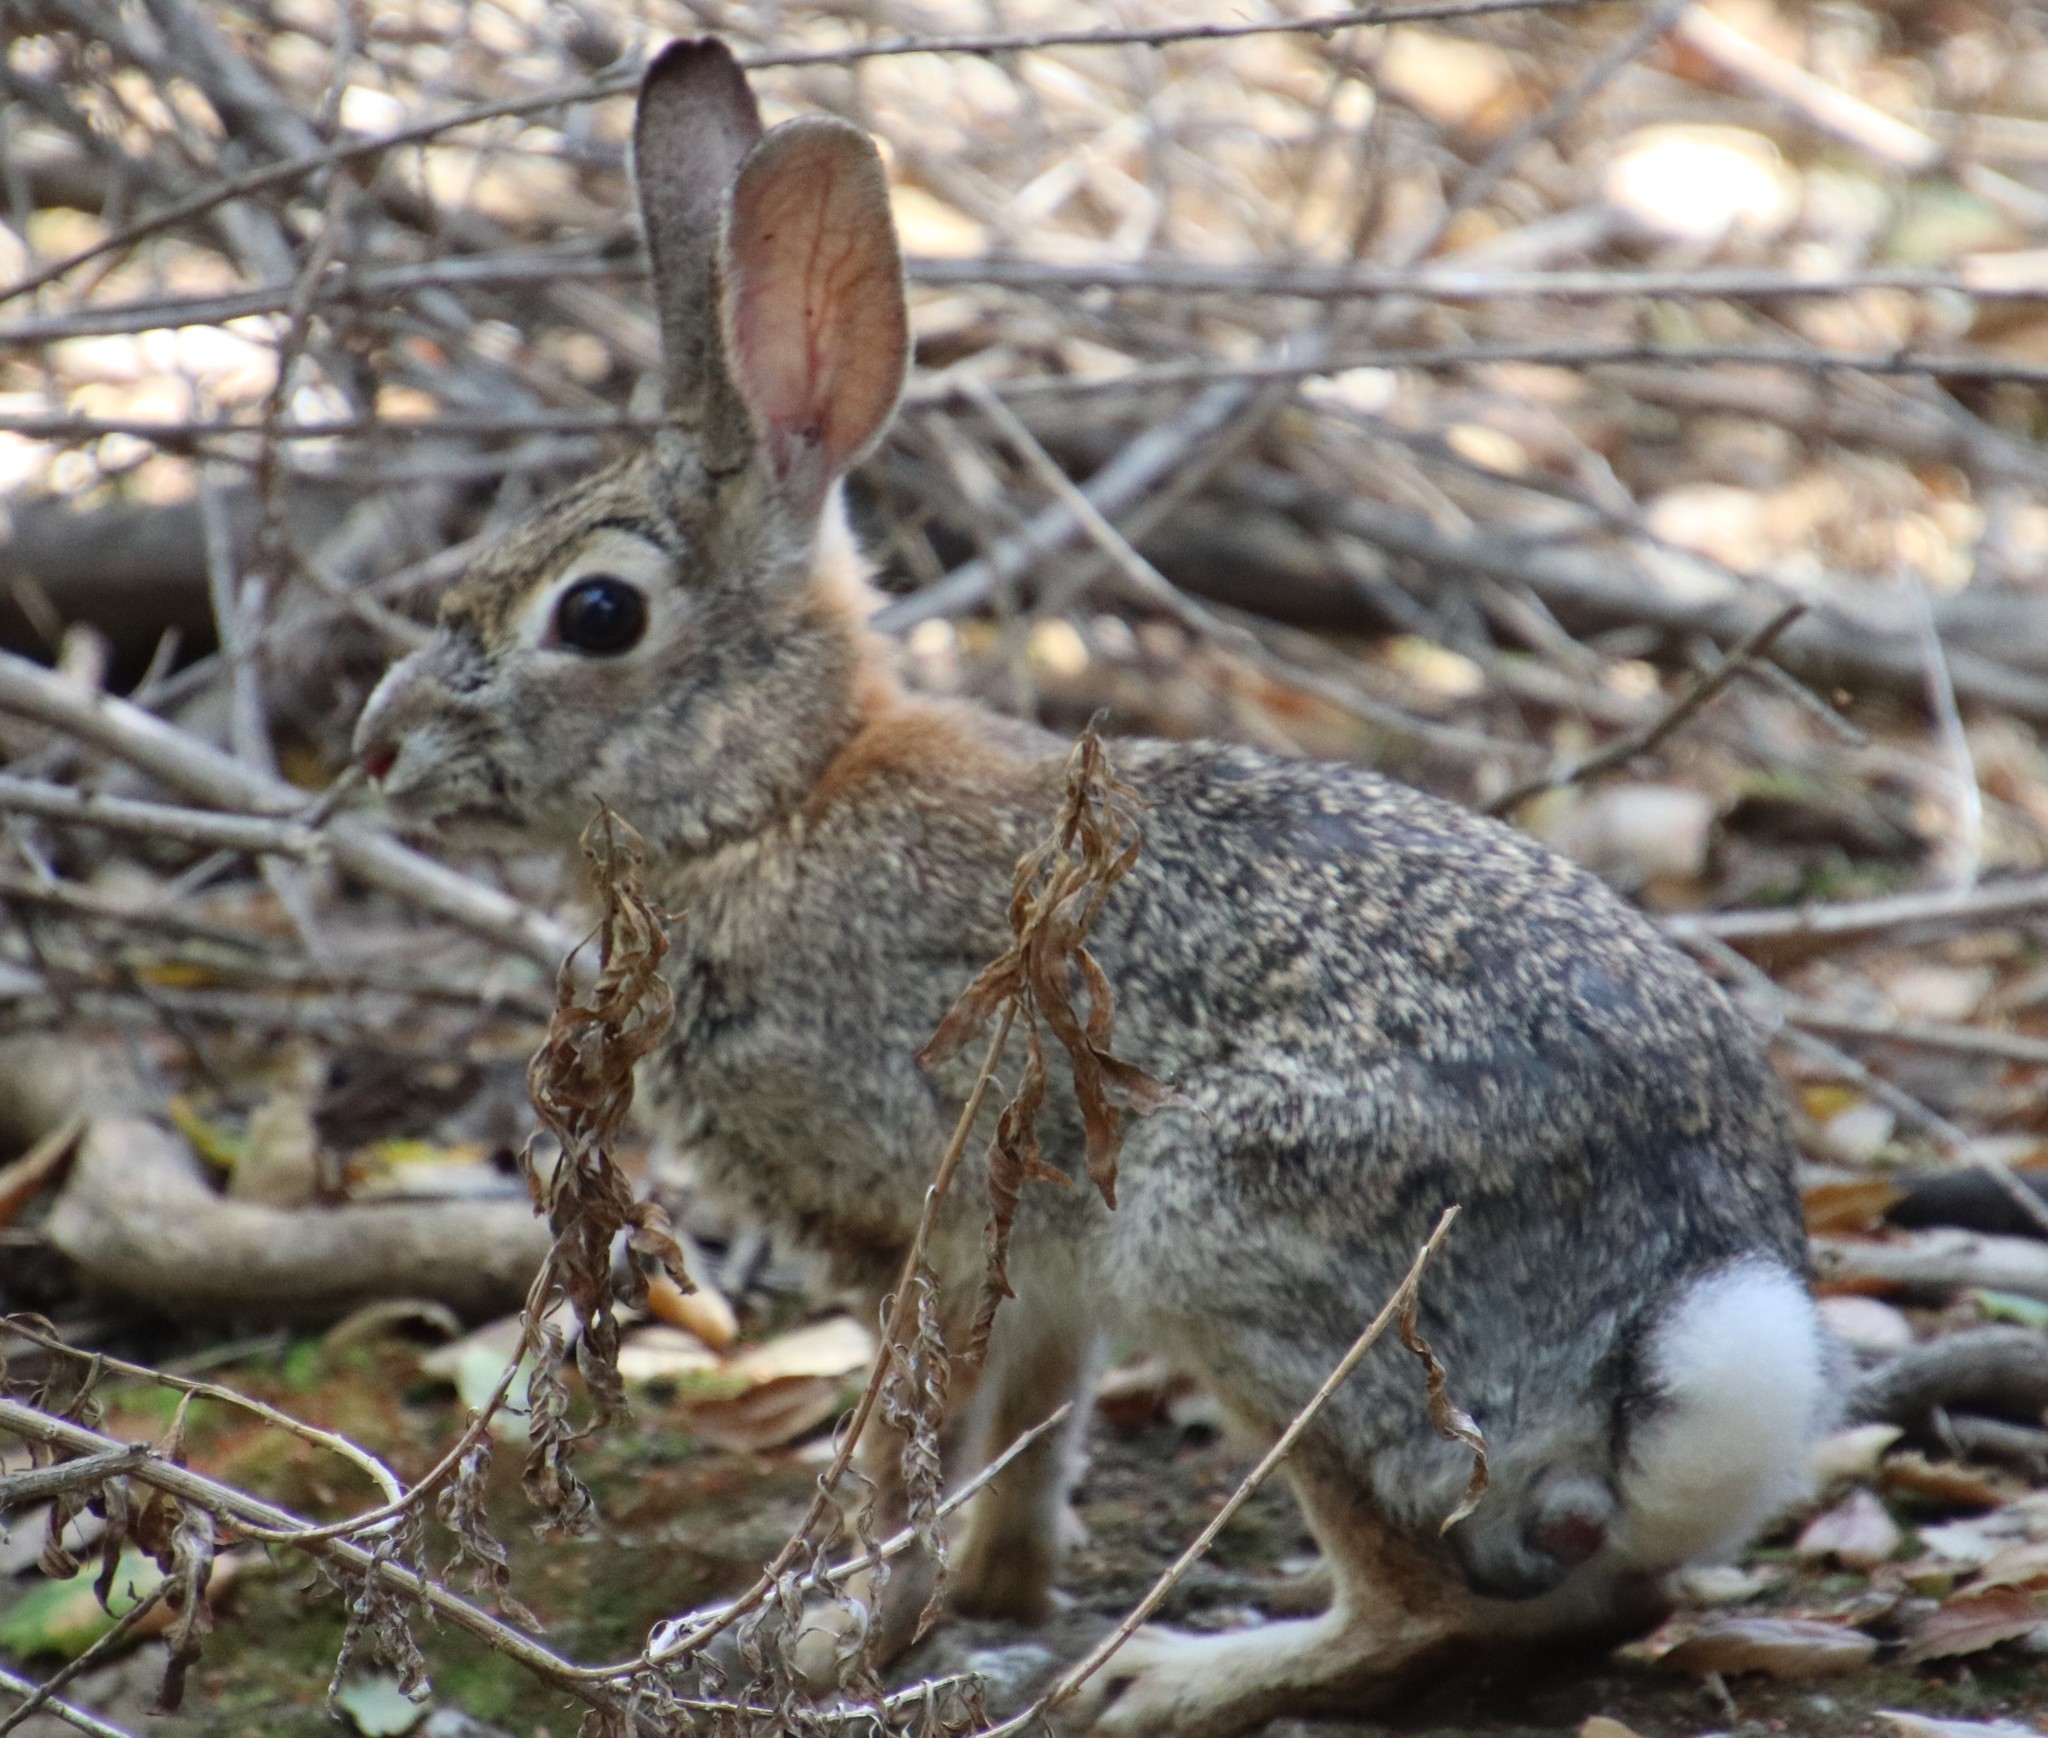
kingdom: Animalia
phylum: Chordata
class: Mammalia
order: Lagomorpha
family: Leporidae
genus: Sylvilagus
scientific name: Sylvilagus audubonii
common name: Desert cottontail
